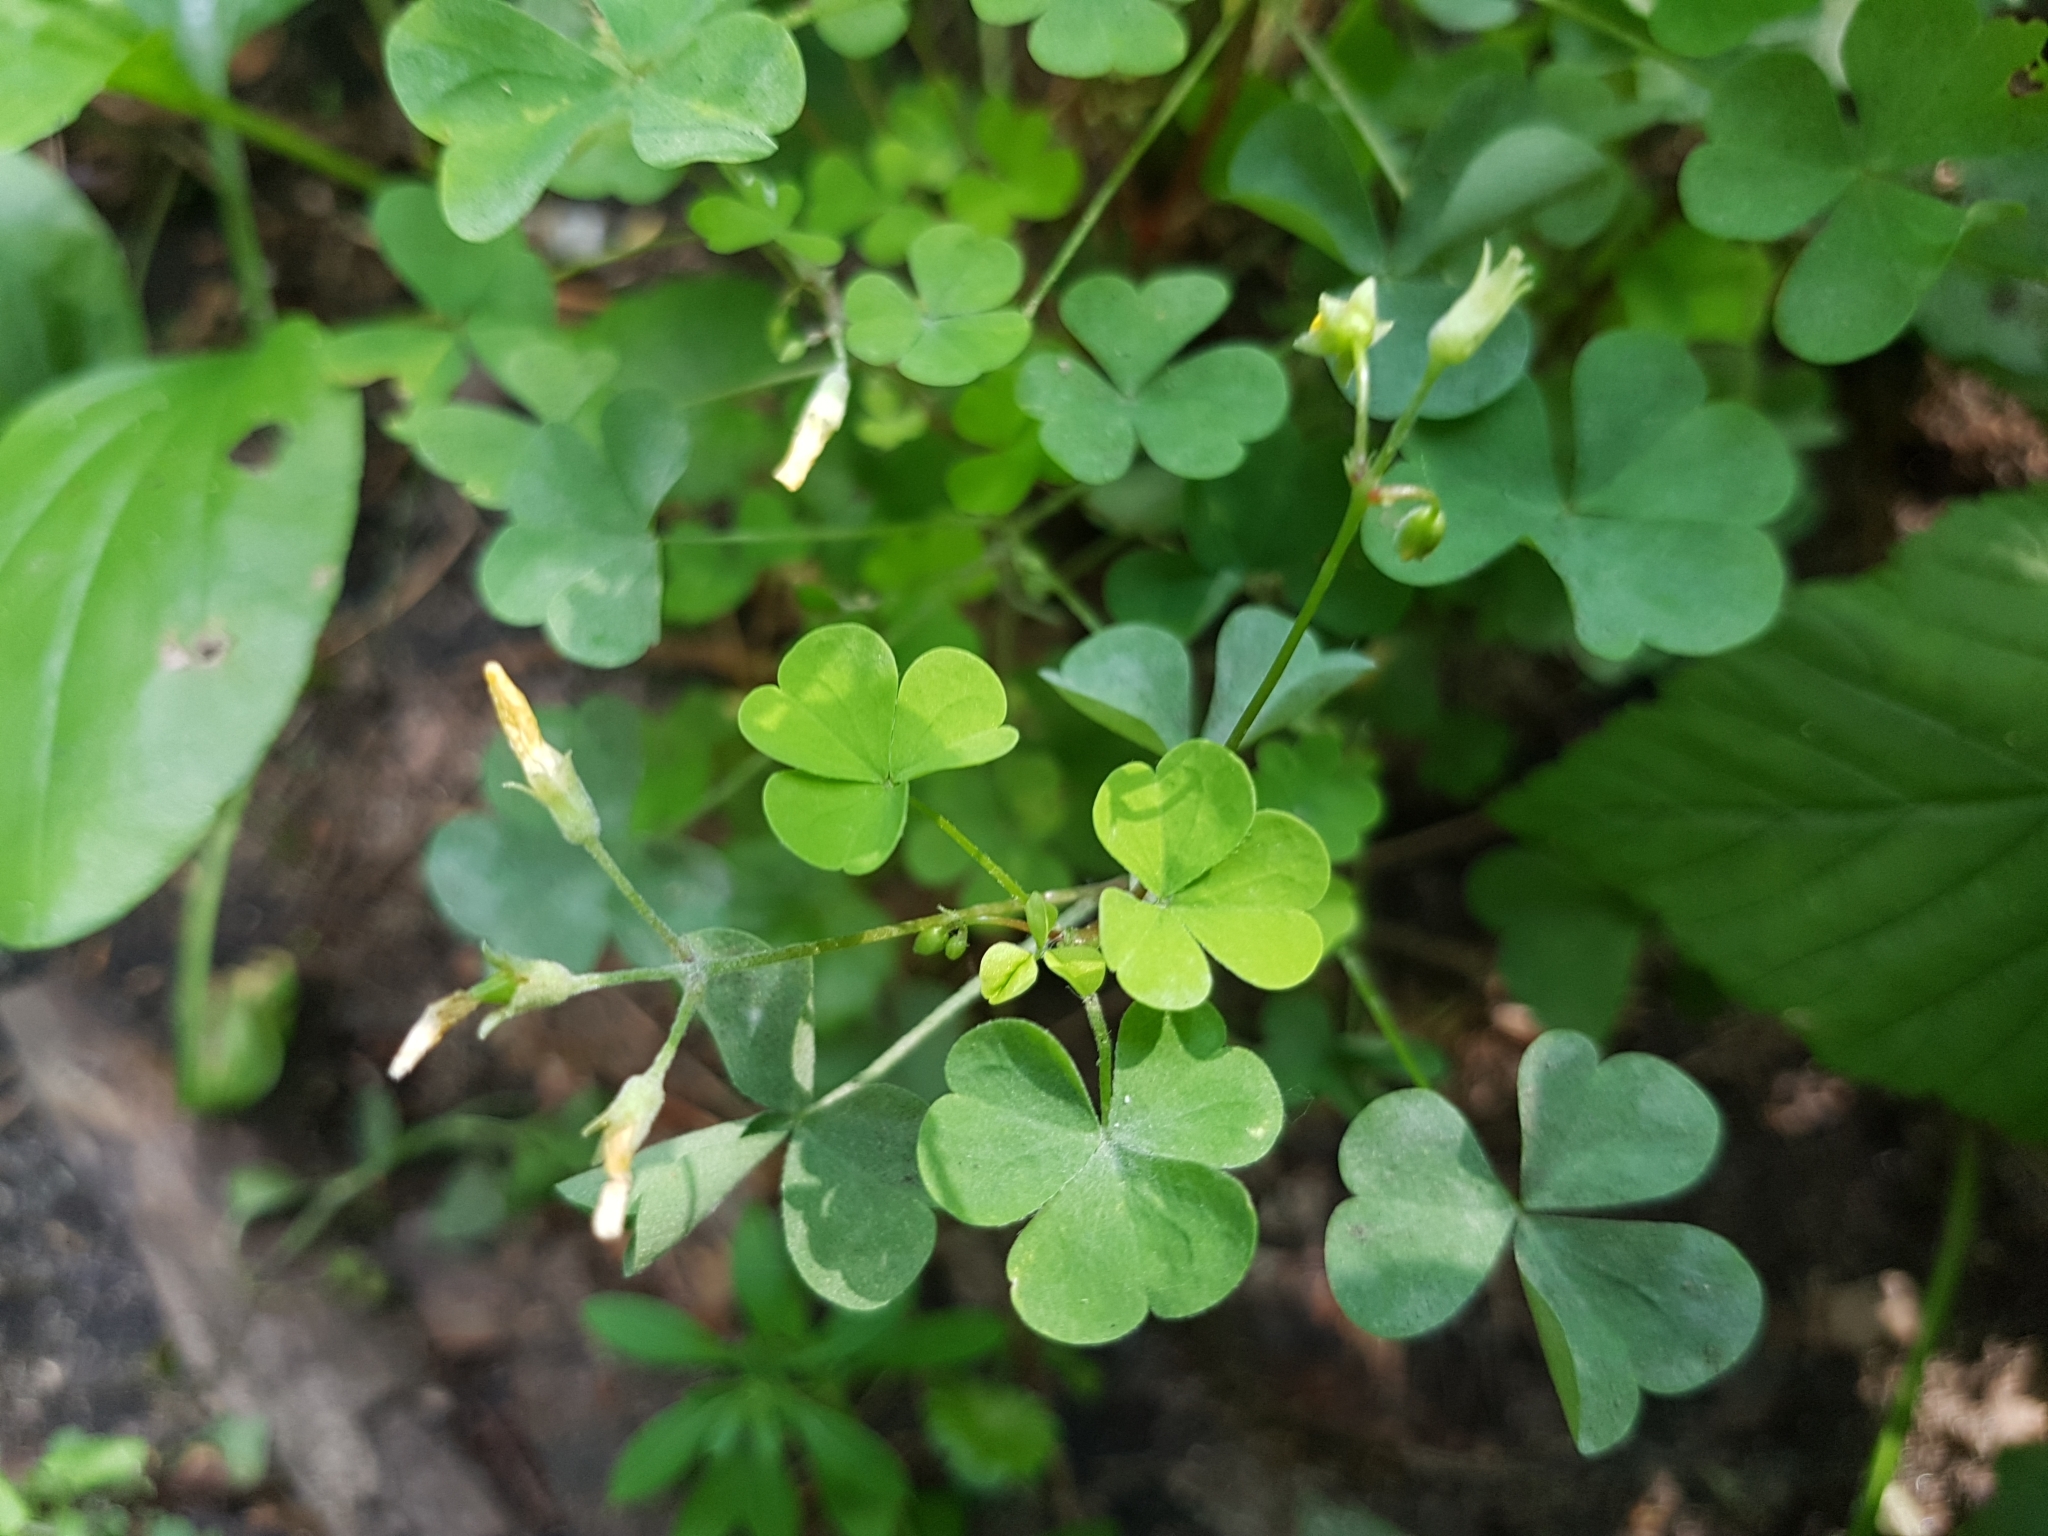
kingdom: Plantae
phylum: Tracheophyta
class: Magnoliopsida
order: Oxalidales
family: Oxalidaceae
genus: Oxalis
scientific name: Oxalis stricta
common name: Upright yellow-sorrel
